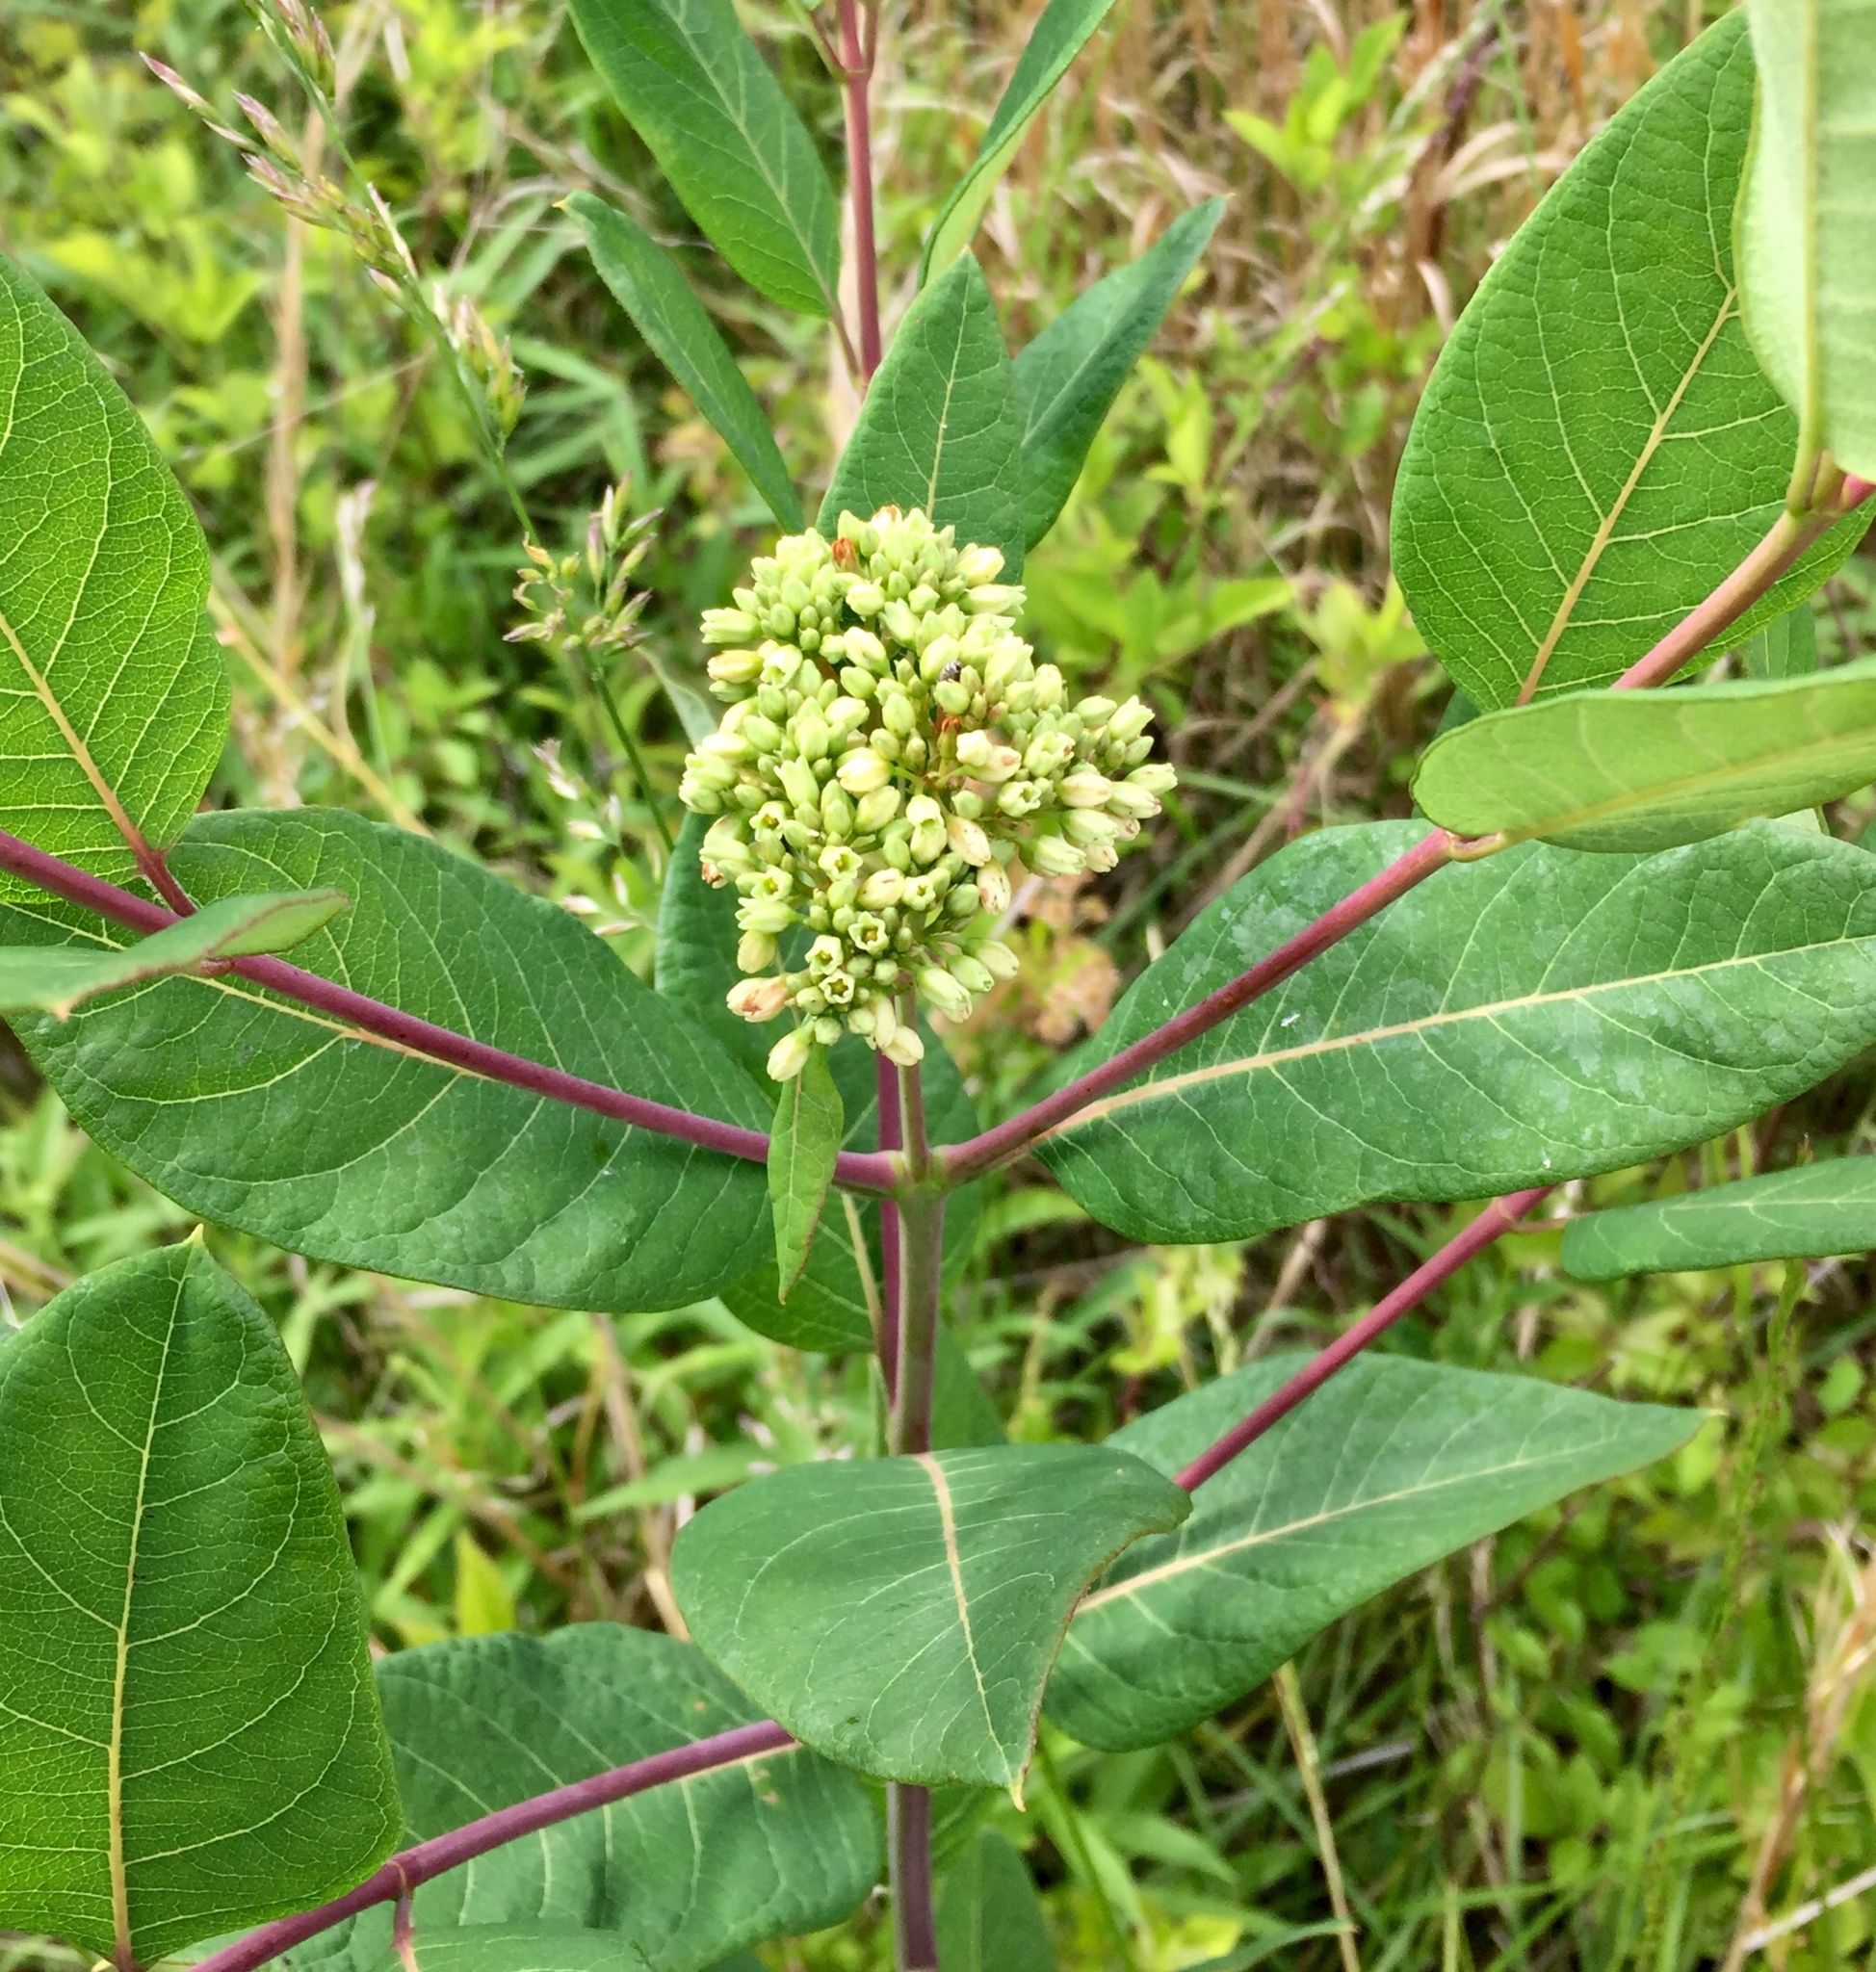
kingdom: Plantae
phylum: Tracheophyta
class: Magnoliopsida
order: Gentianales
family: Apocynaceae
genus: Apocynum
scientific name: Apocynum cannabinum
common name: Hemp dogbane
